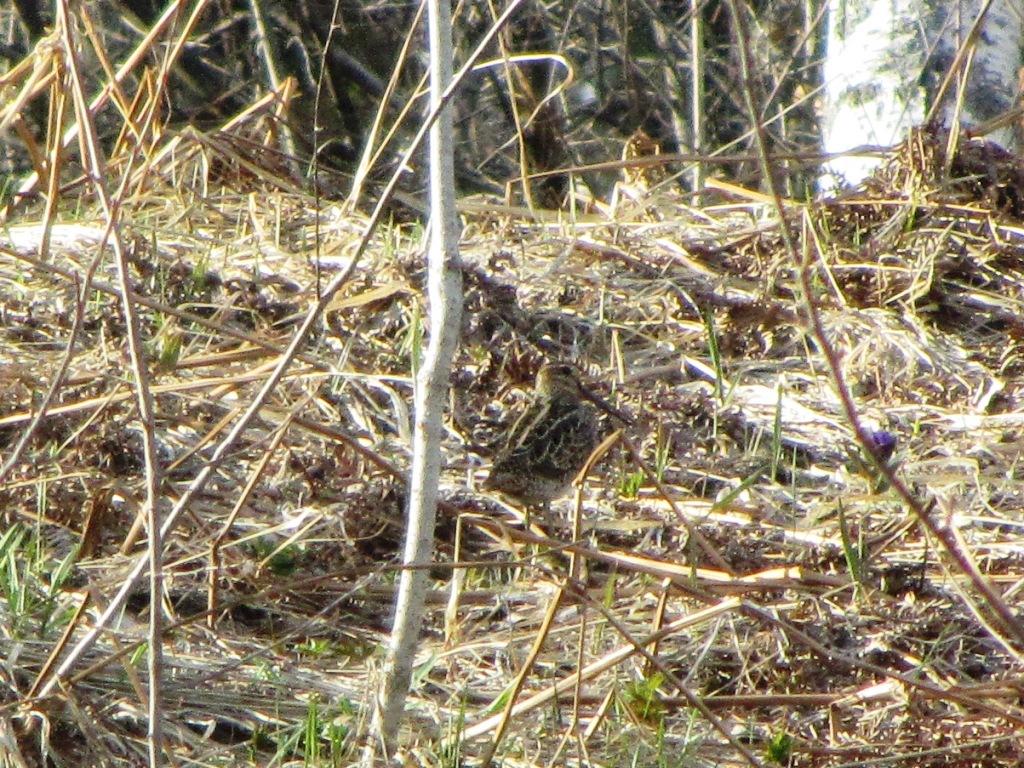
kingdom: Animalia
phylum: Chordata
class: Aves
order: Charadriiformes
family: Scolopacidae
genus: Gallinago
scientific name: Gallinago megala
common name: Swinhoe's snipe
